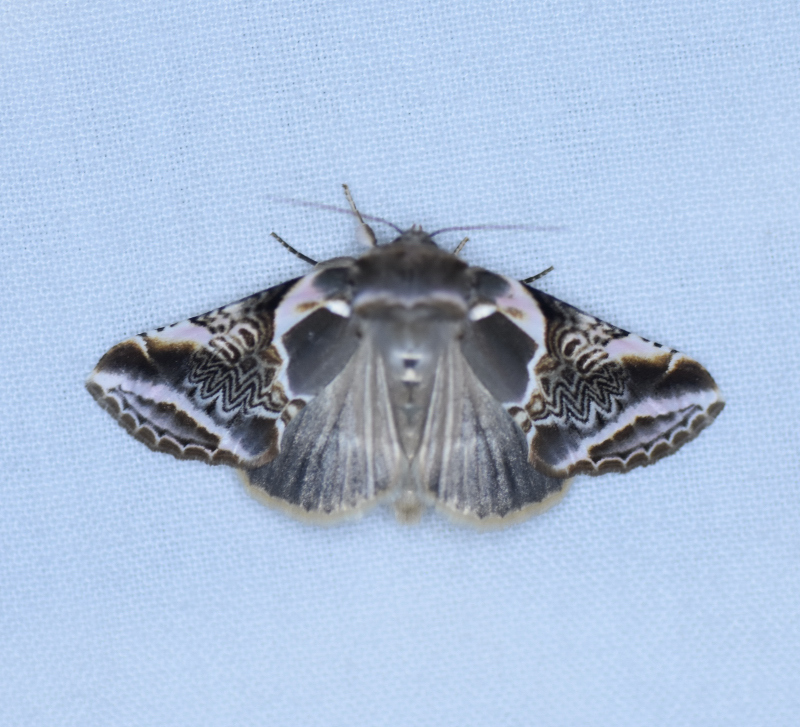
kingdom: Animalia
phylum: Arthropoda
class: Insecta
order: Lepidoptera
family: Drepanidae
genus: Habrosyne
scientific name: Habrosyne scripta
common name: Lettered habrosyne moth
